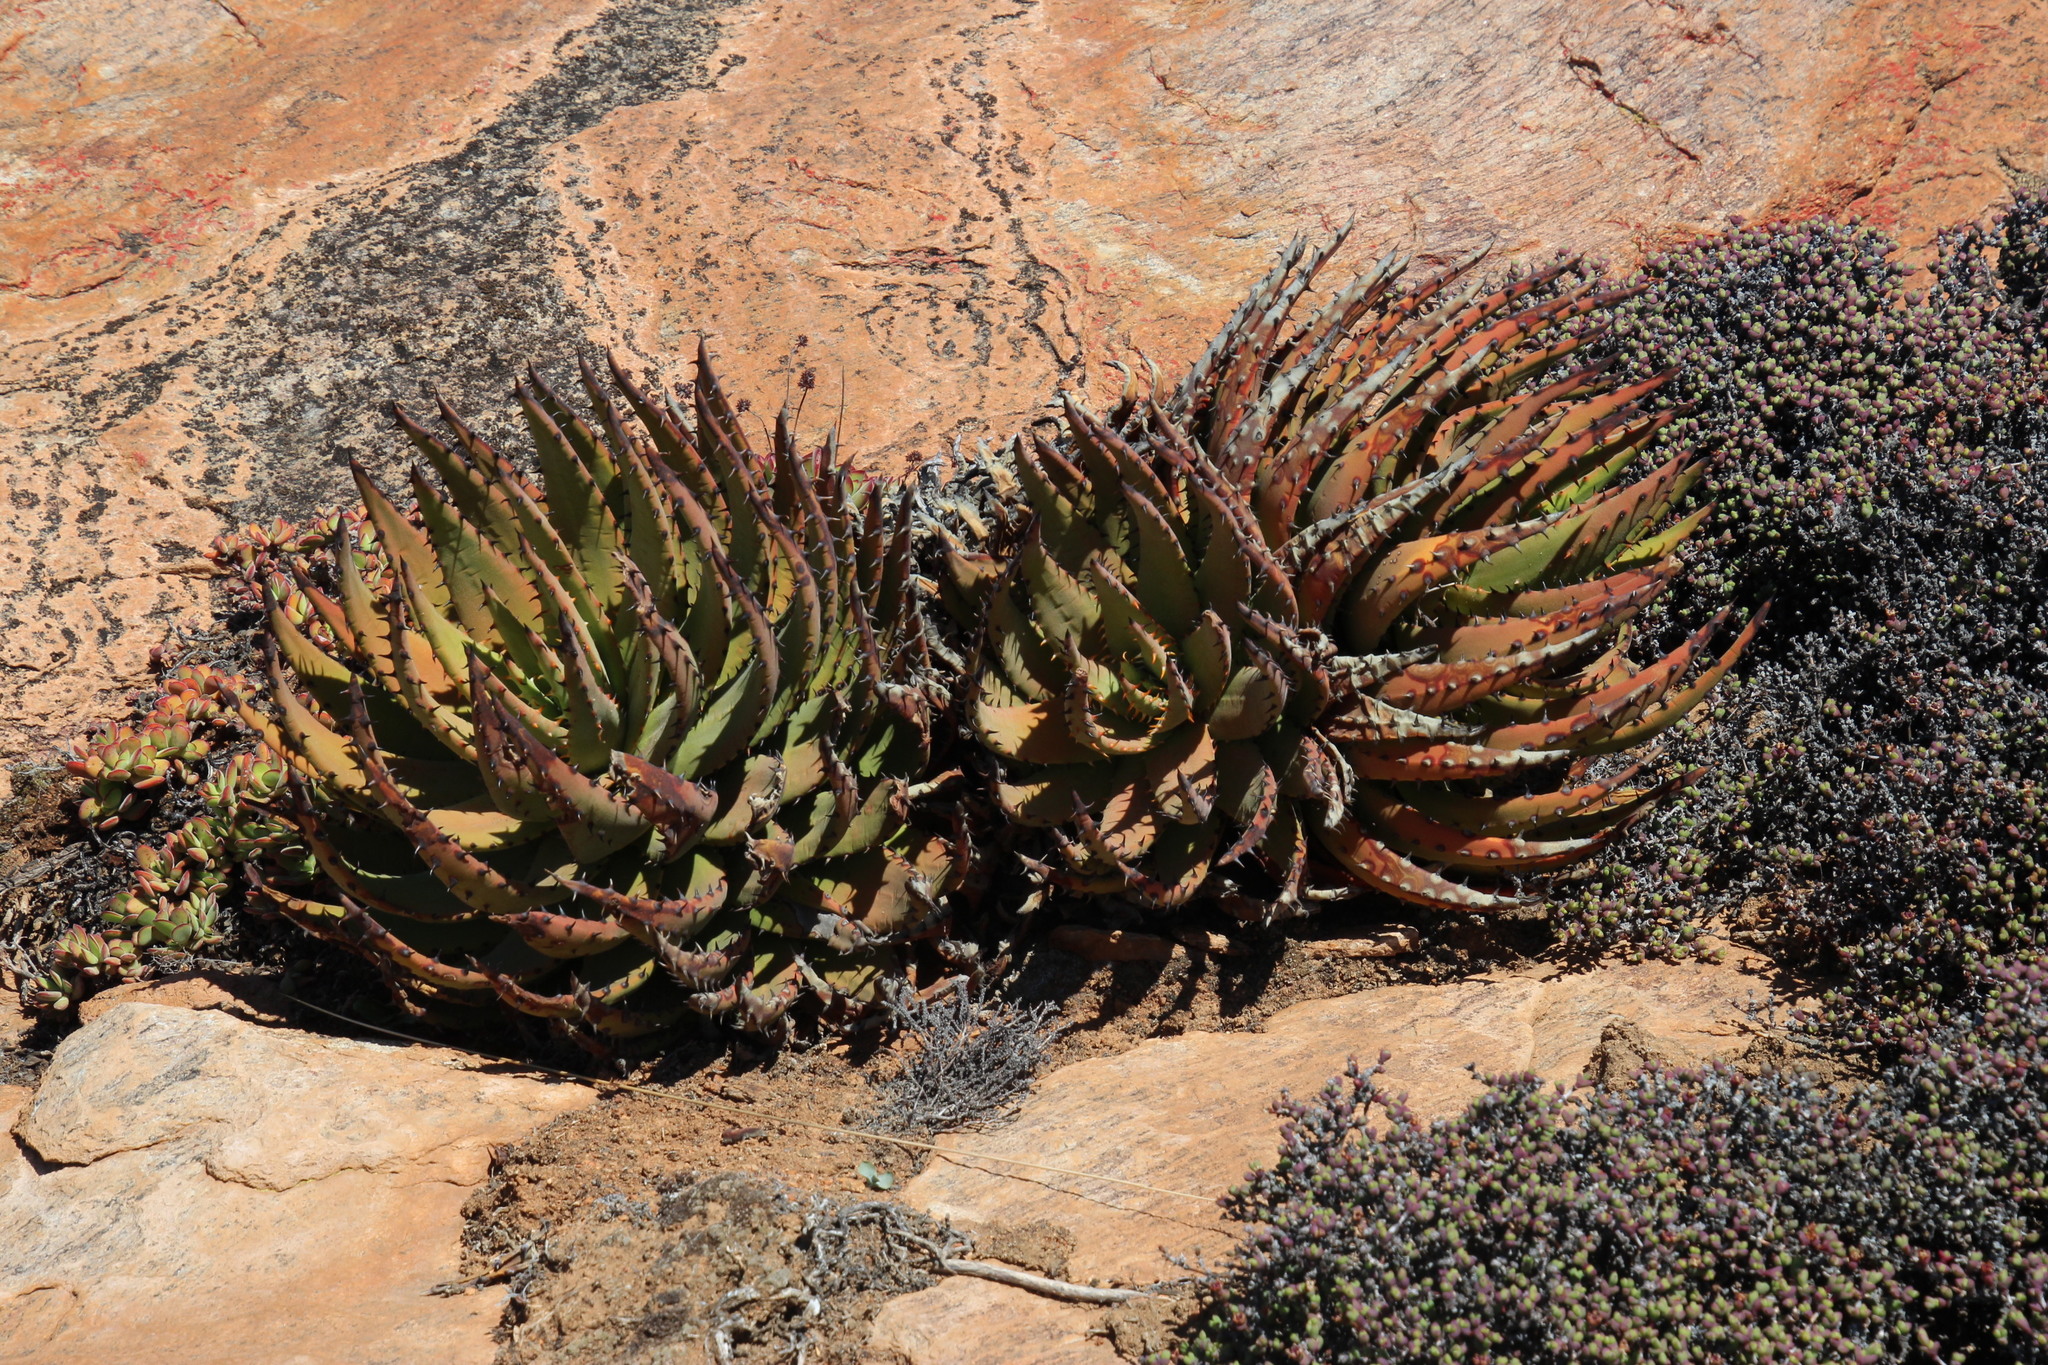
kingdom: Plantae
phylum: Tracheophyta
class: Liliopsida
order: Asparagales
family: Asphodelaceae
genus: Aloe
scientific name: Aloe melanacantha
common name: Black thorn aloe
